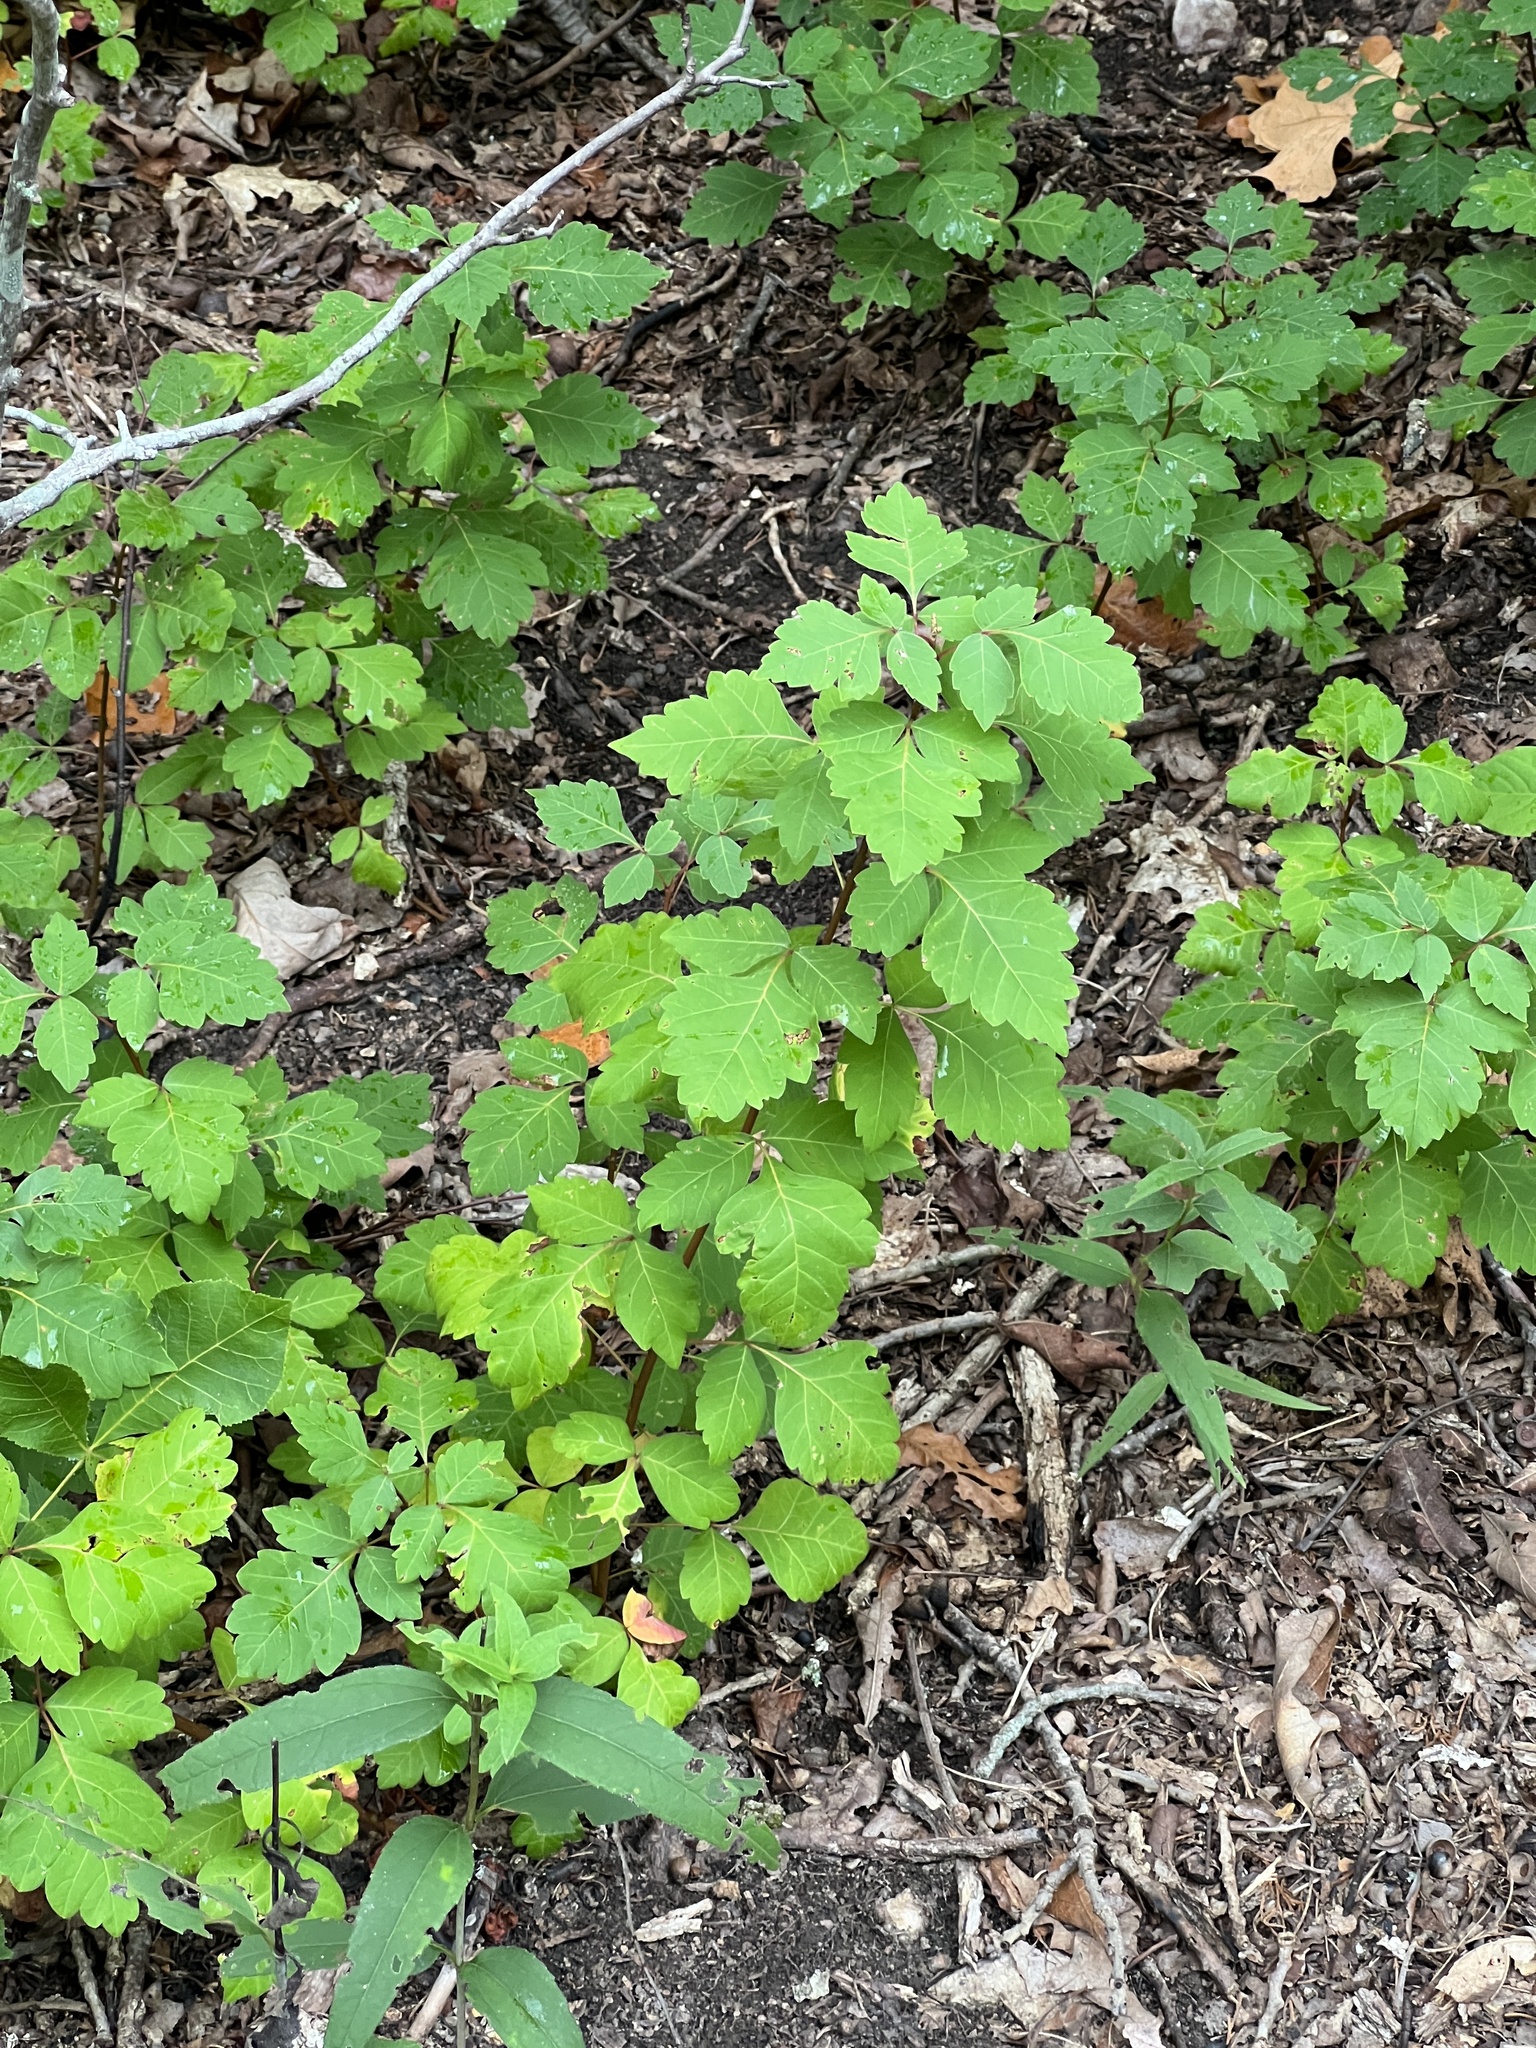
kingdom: Plantae
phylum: Tracheophyta
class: Magnoliopsida
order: Sapindales
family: Anacardiaceae
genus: Rhus
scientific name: Rhus aromatica
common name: Aromatic sumac
